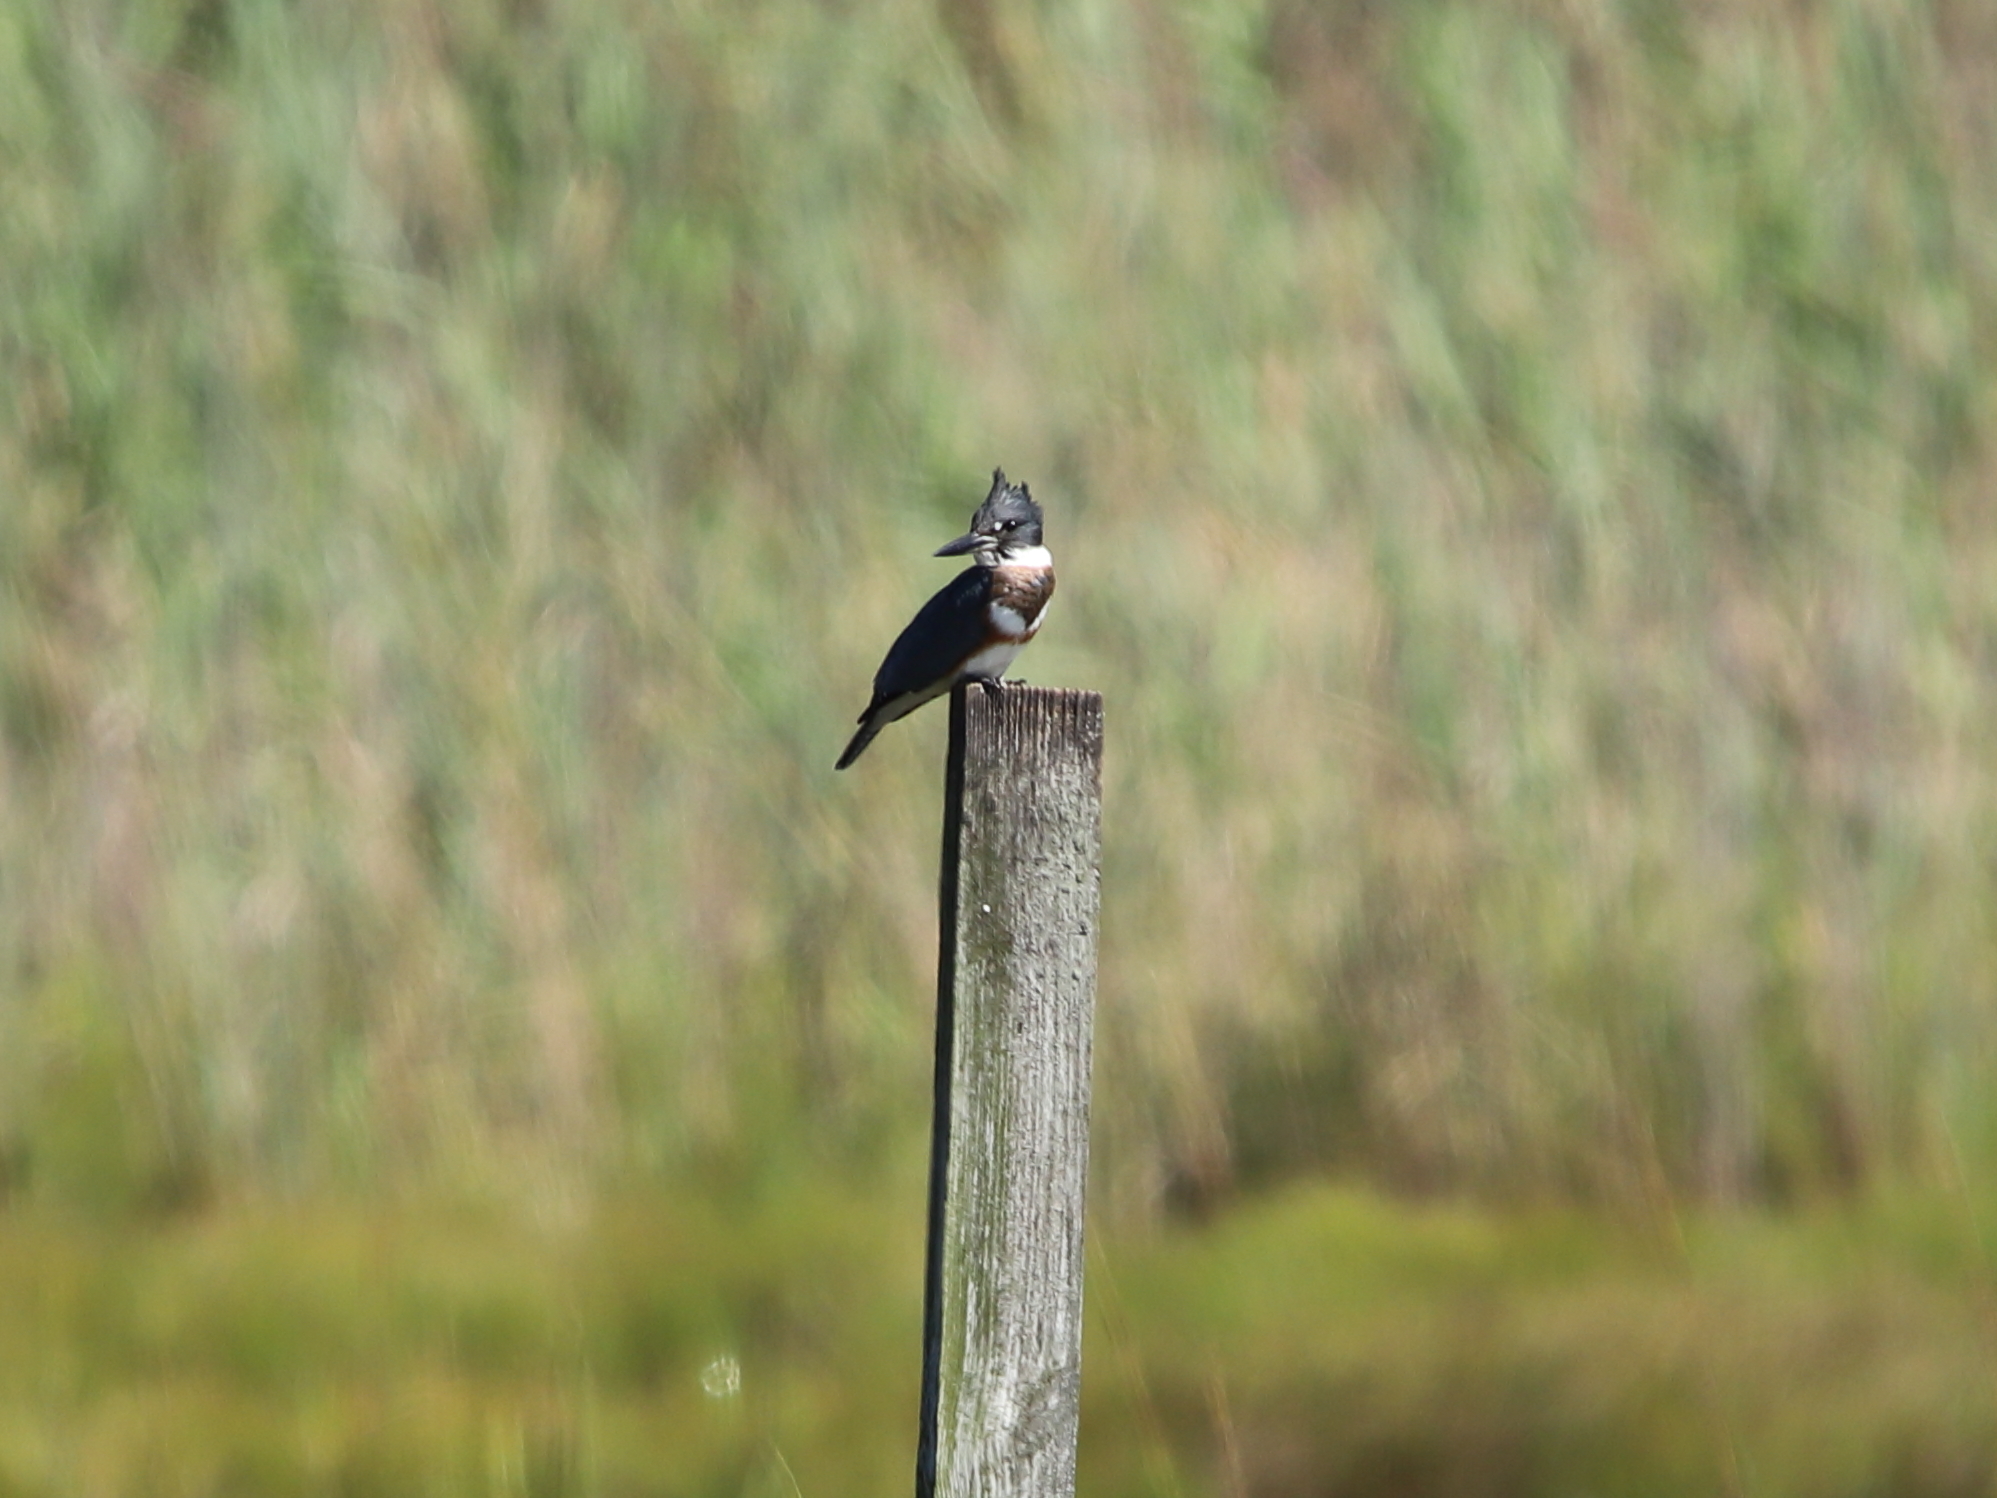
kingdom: Animalia
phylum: Chordata
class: Aves
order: Coraciiformes
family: Alcedinidae
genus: Megaceryle
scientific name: Megaceryle alcyon
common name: Belted kingfisher
